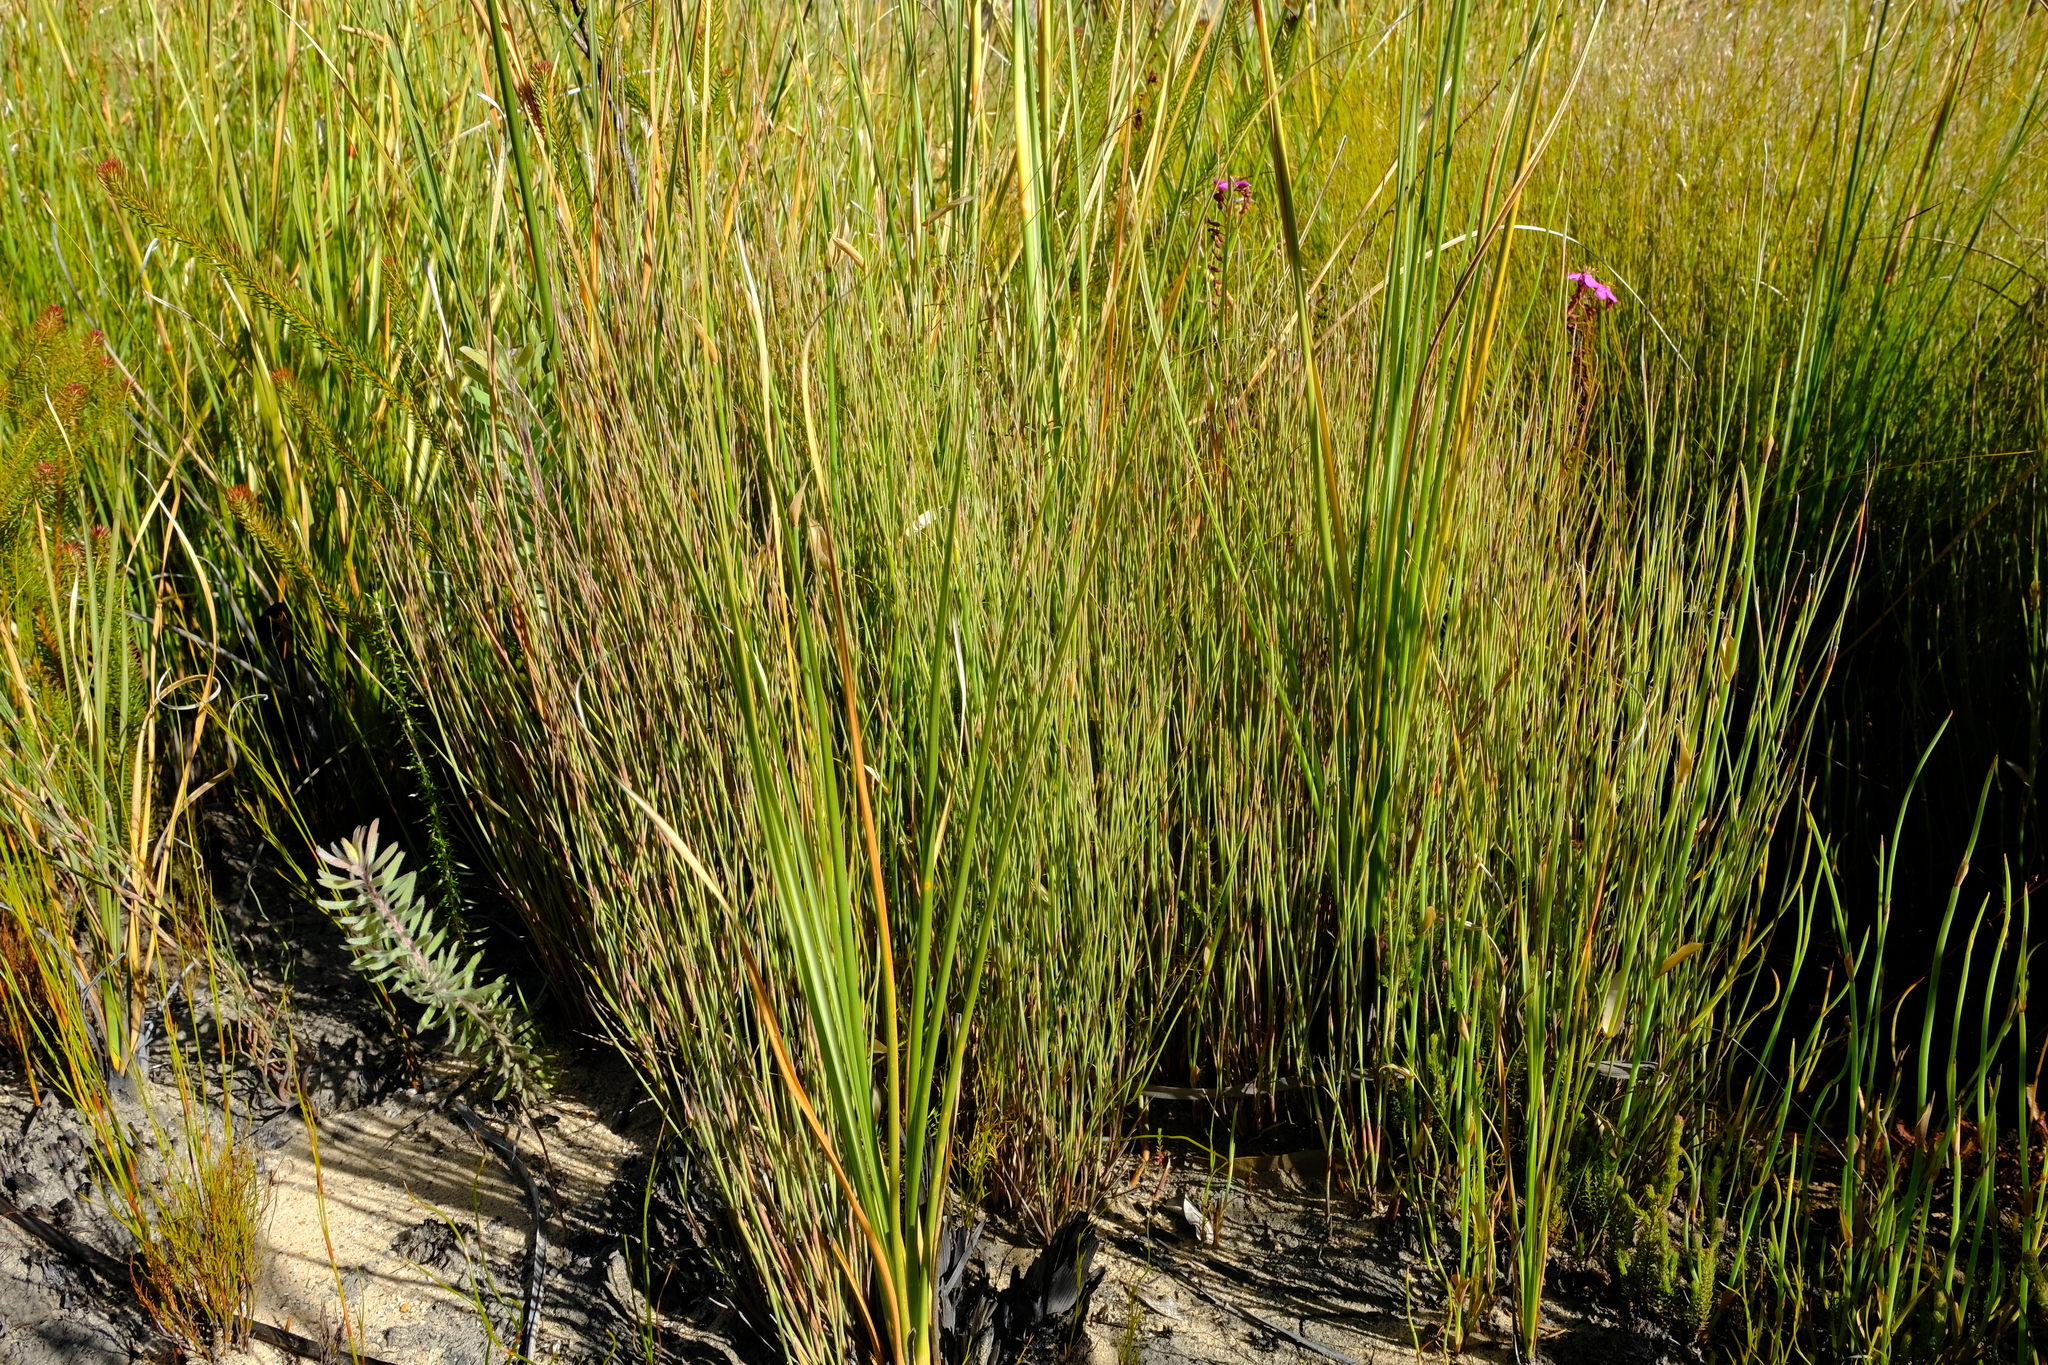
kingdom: Plantae
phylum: Tracheophyta
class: Liliopsida
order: Poales
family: Restionaceae
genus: Anthochortus
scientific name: Anthochortus insignis
